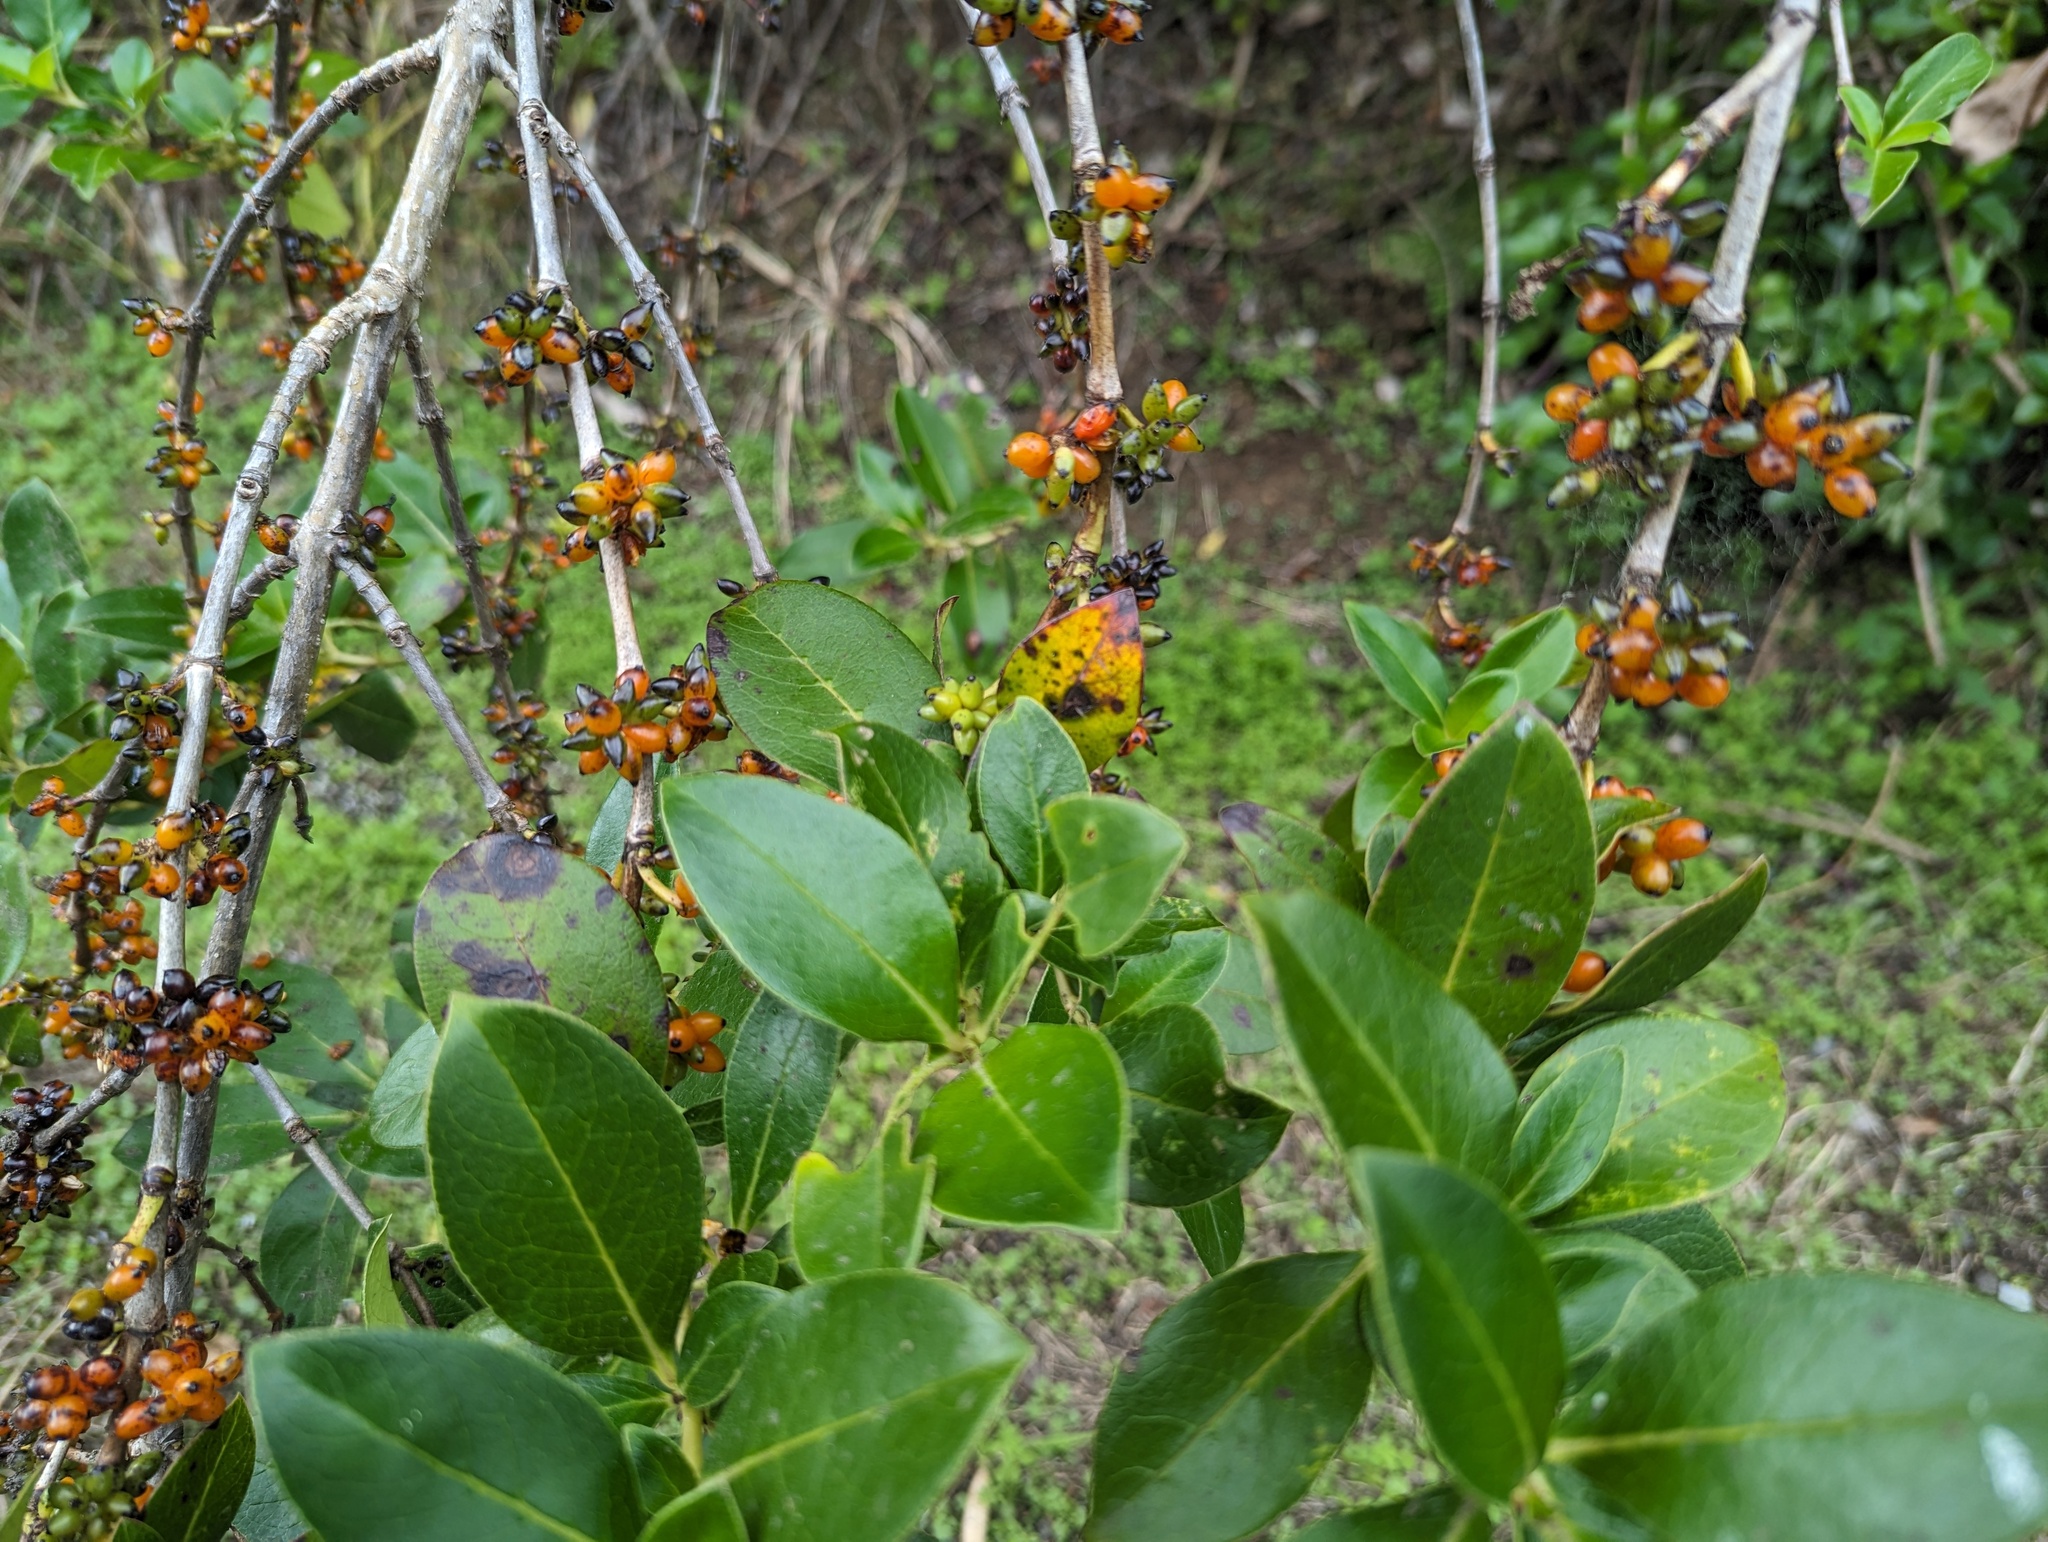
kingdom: Plantae
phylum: Tracheophyta
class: Magnoliopsida
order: Gentianales
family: Rubiaceae
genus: Coprosma
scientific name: Coprosma robusta
